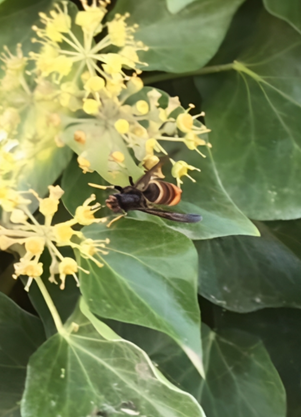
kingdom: Animalia
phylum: Arthropoda
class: Insecta
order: Hymenoptera
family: Vespidae
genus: Vespa
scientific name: Vespa velutina
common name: Asian hornet
